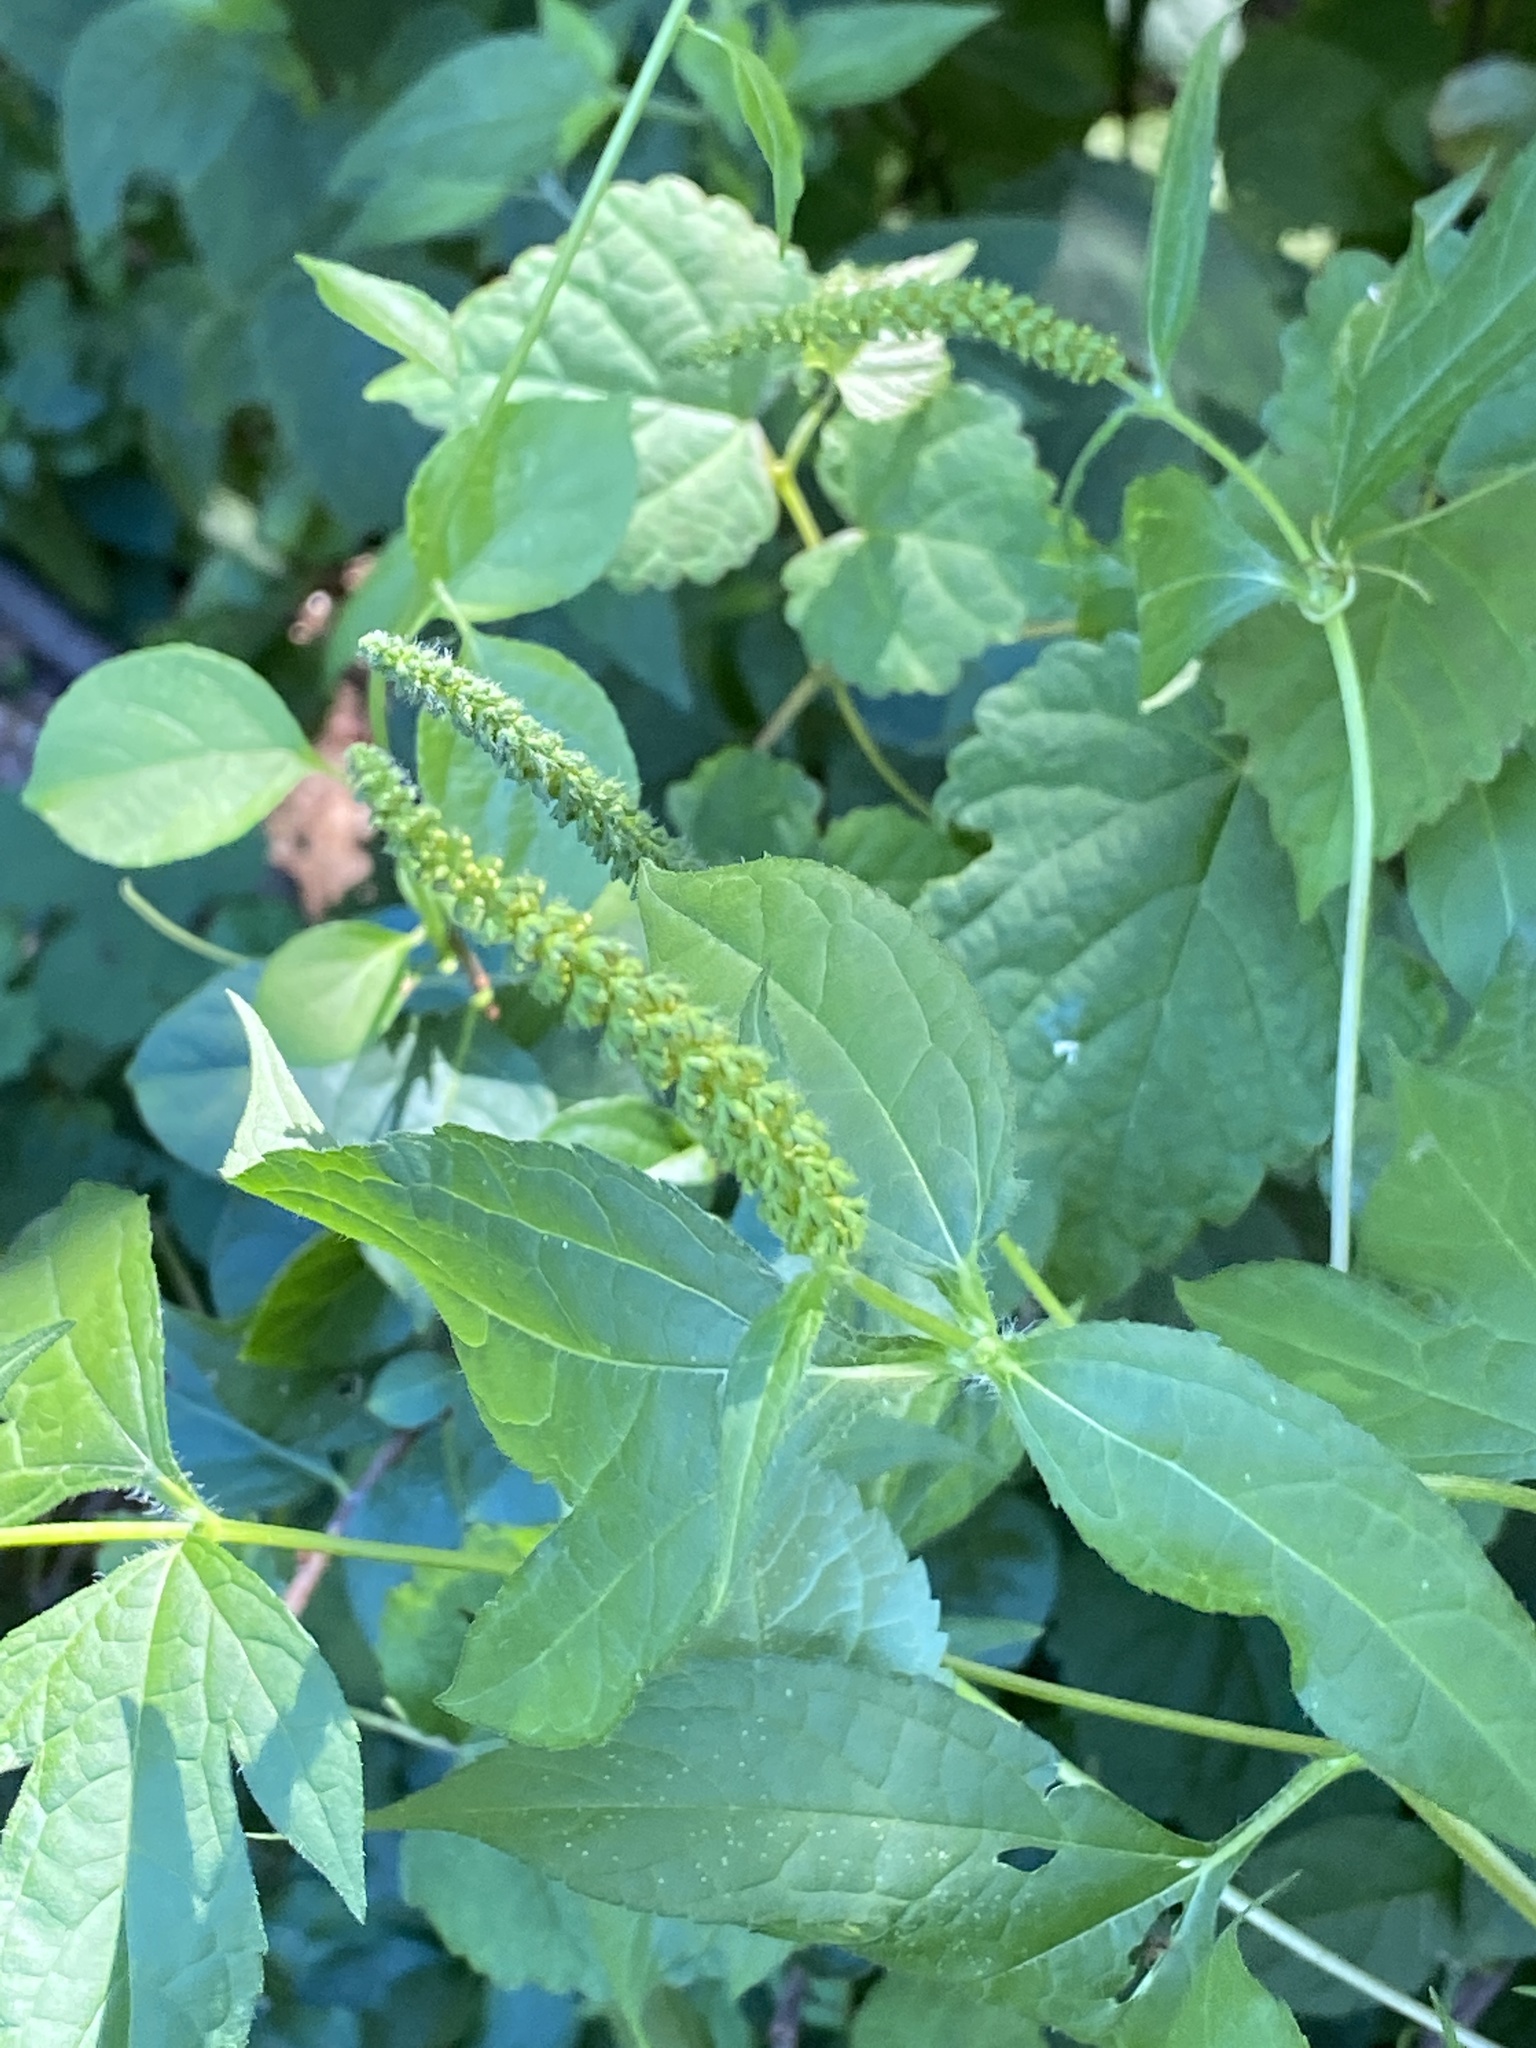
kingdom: Plantae
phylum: Tracheophyta
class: Magnoliopsida
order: Asterales
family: Asteraceae
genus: Ambrosia
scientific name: Ambrosia trifida
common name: Giant ragweed
